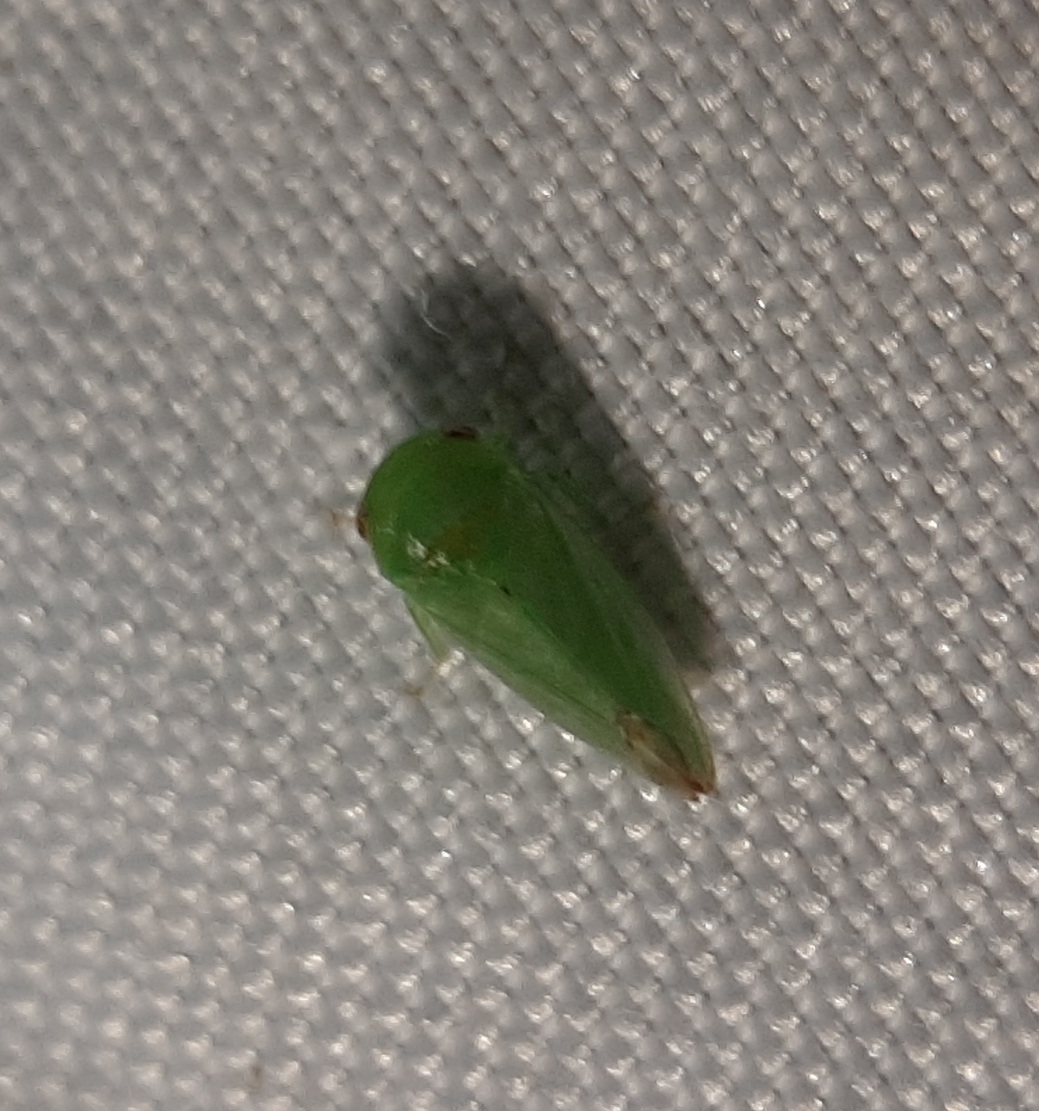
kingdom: Animalia
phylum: Arthropoda
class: Insecta
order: Hemiptera
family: Cicadellidae
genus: Stragania
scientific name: Stragania alabamensis
